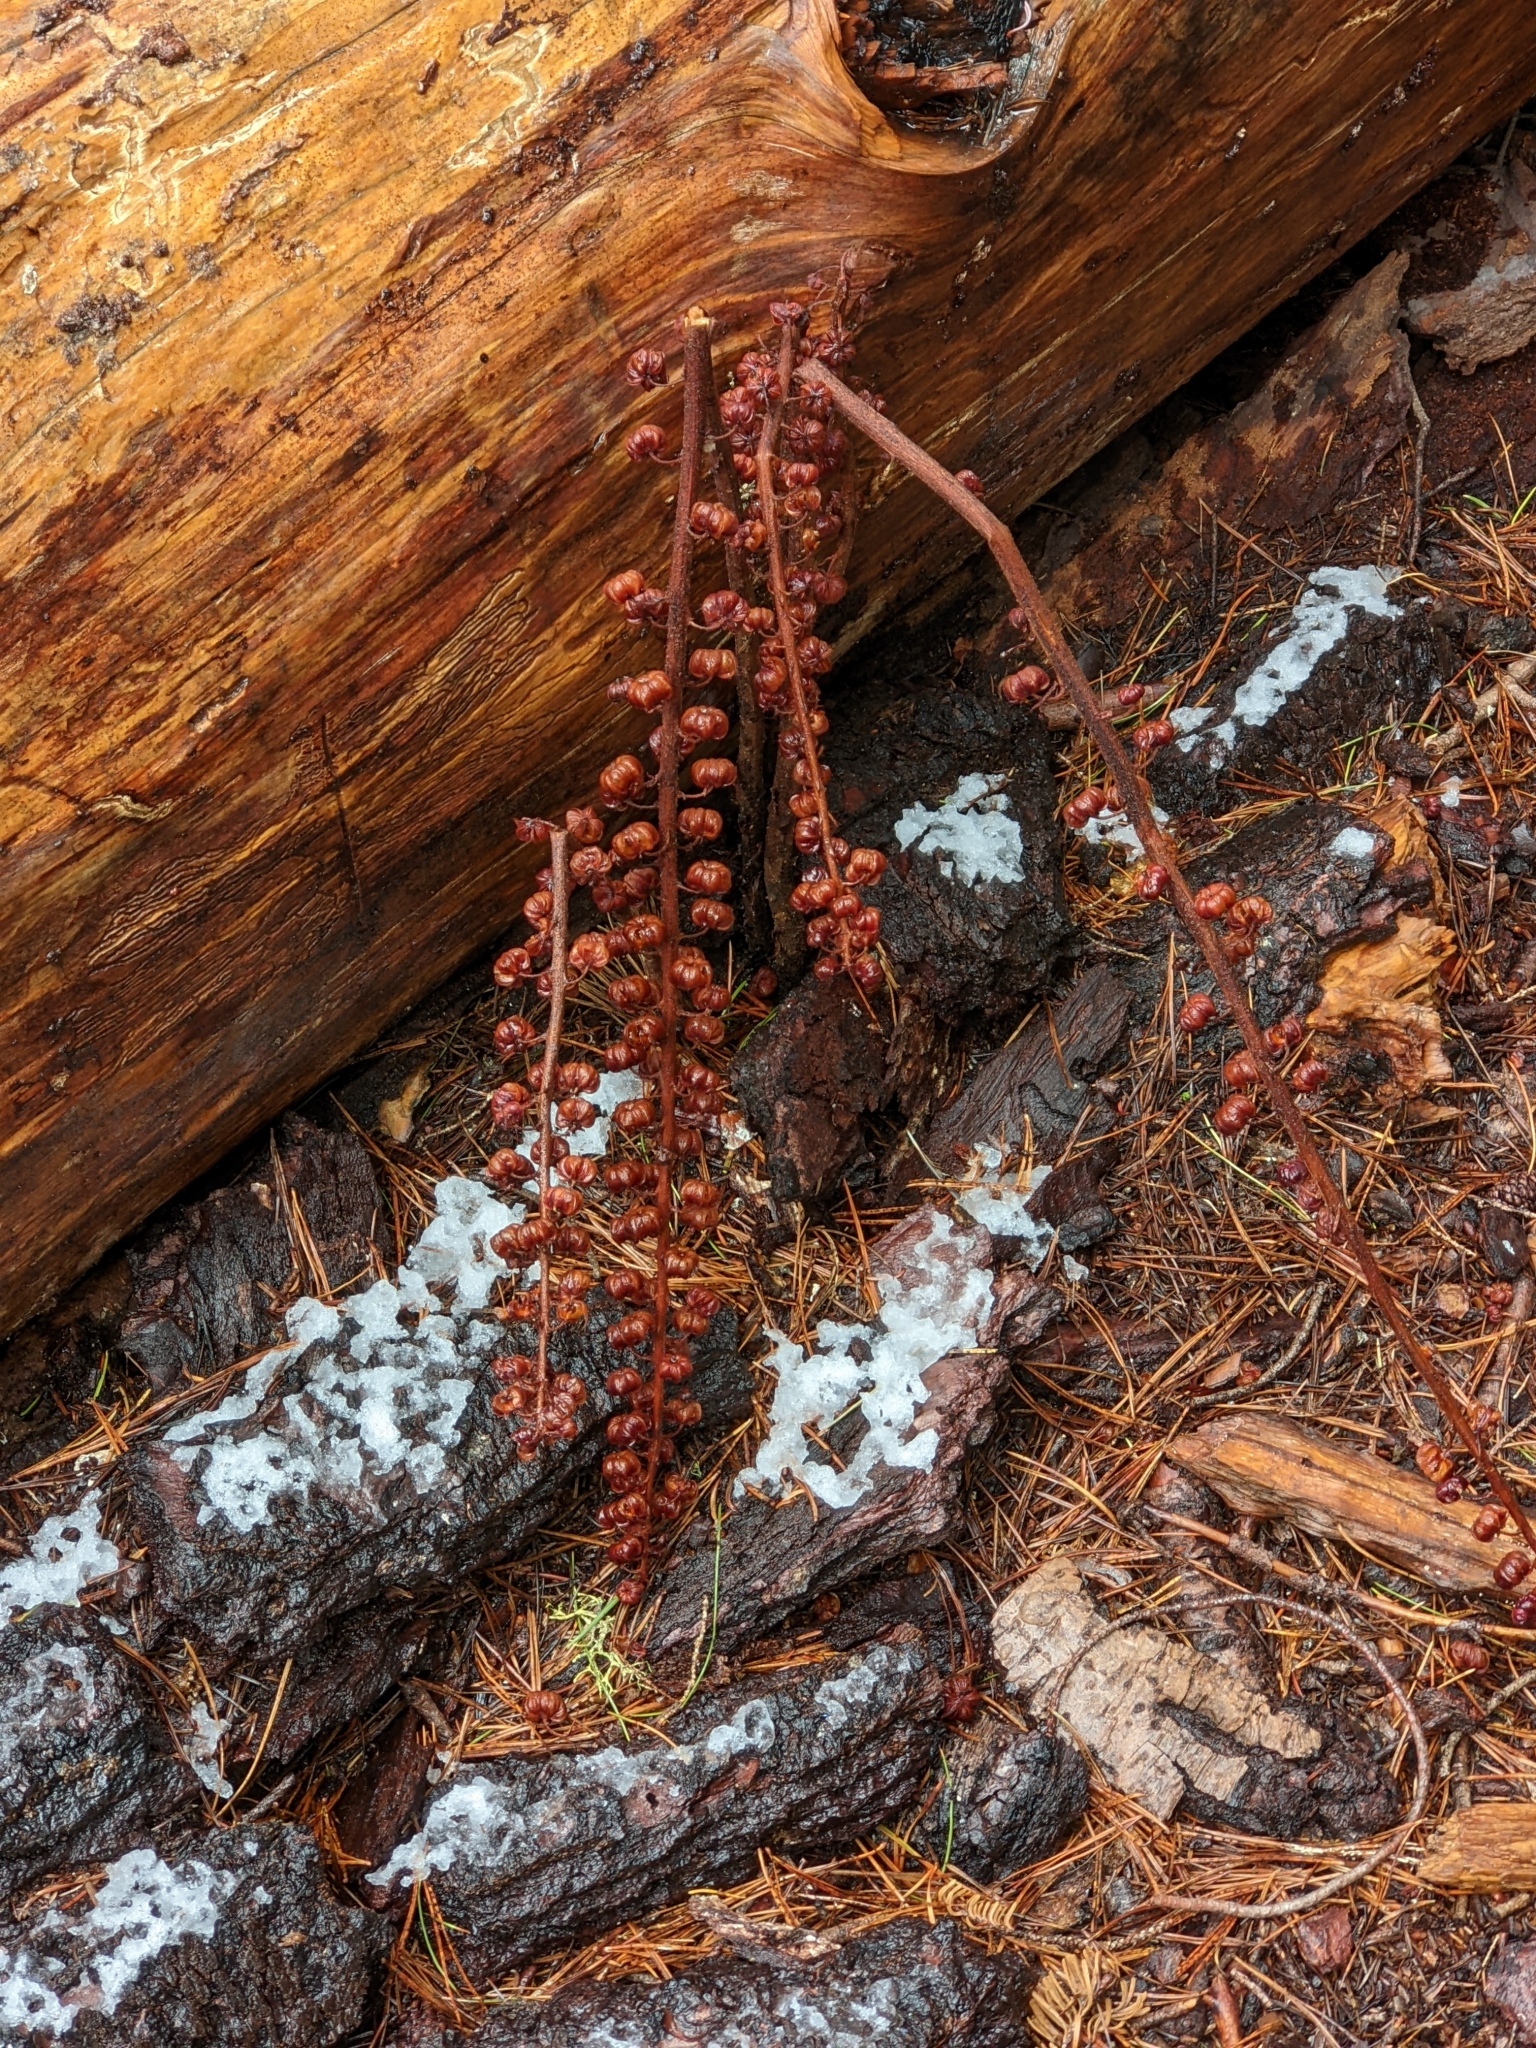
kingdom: Plantae
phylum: Tracheophyta
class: Magnoliopsida
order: Ericales
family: Ericaceae
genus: Pterospora
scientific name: Pterospora andromedea
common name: Giant bird's-nest
